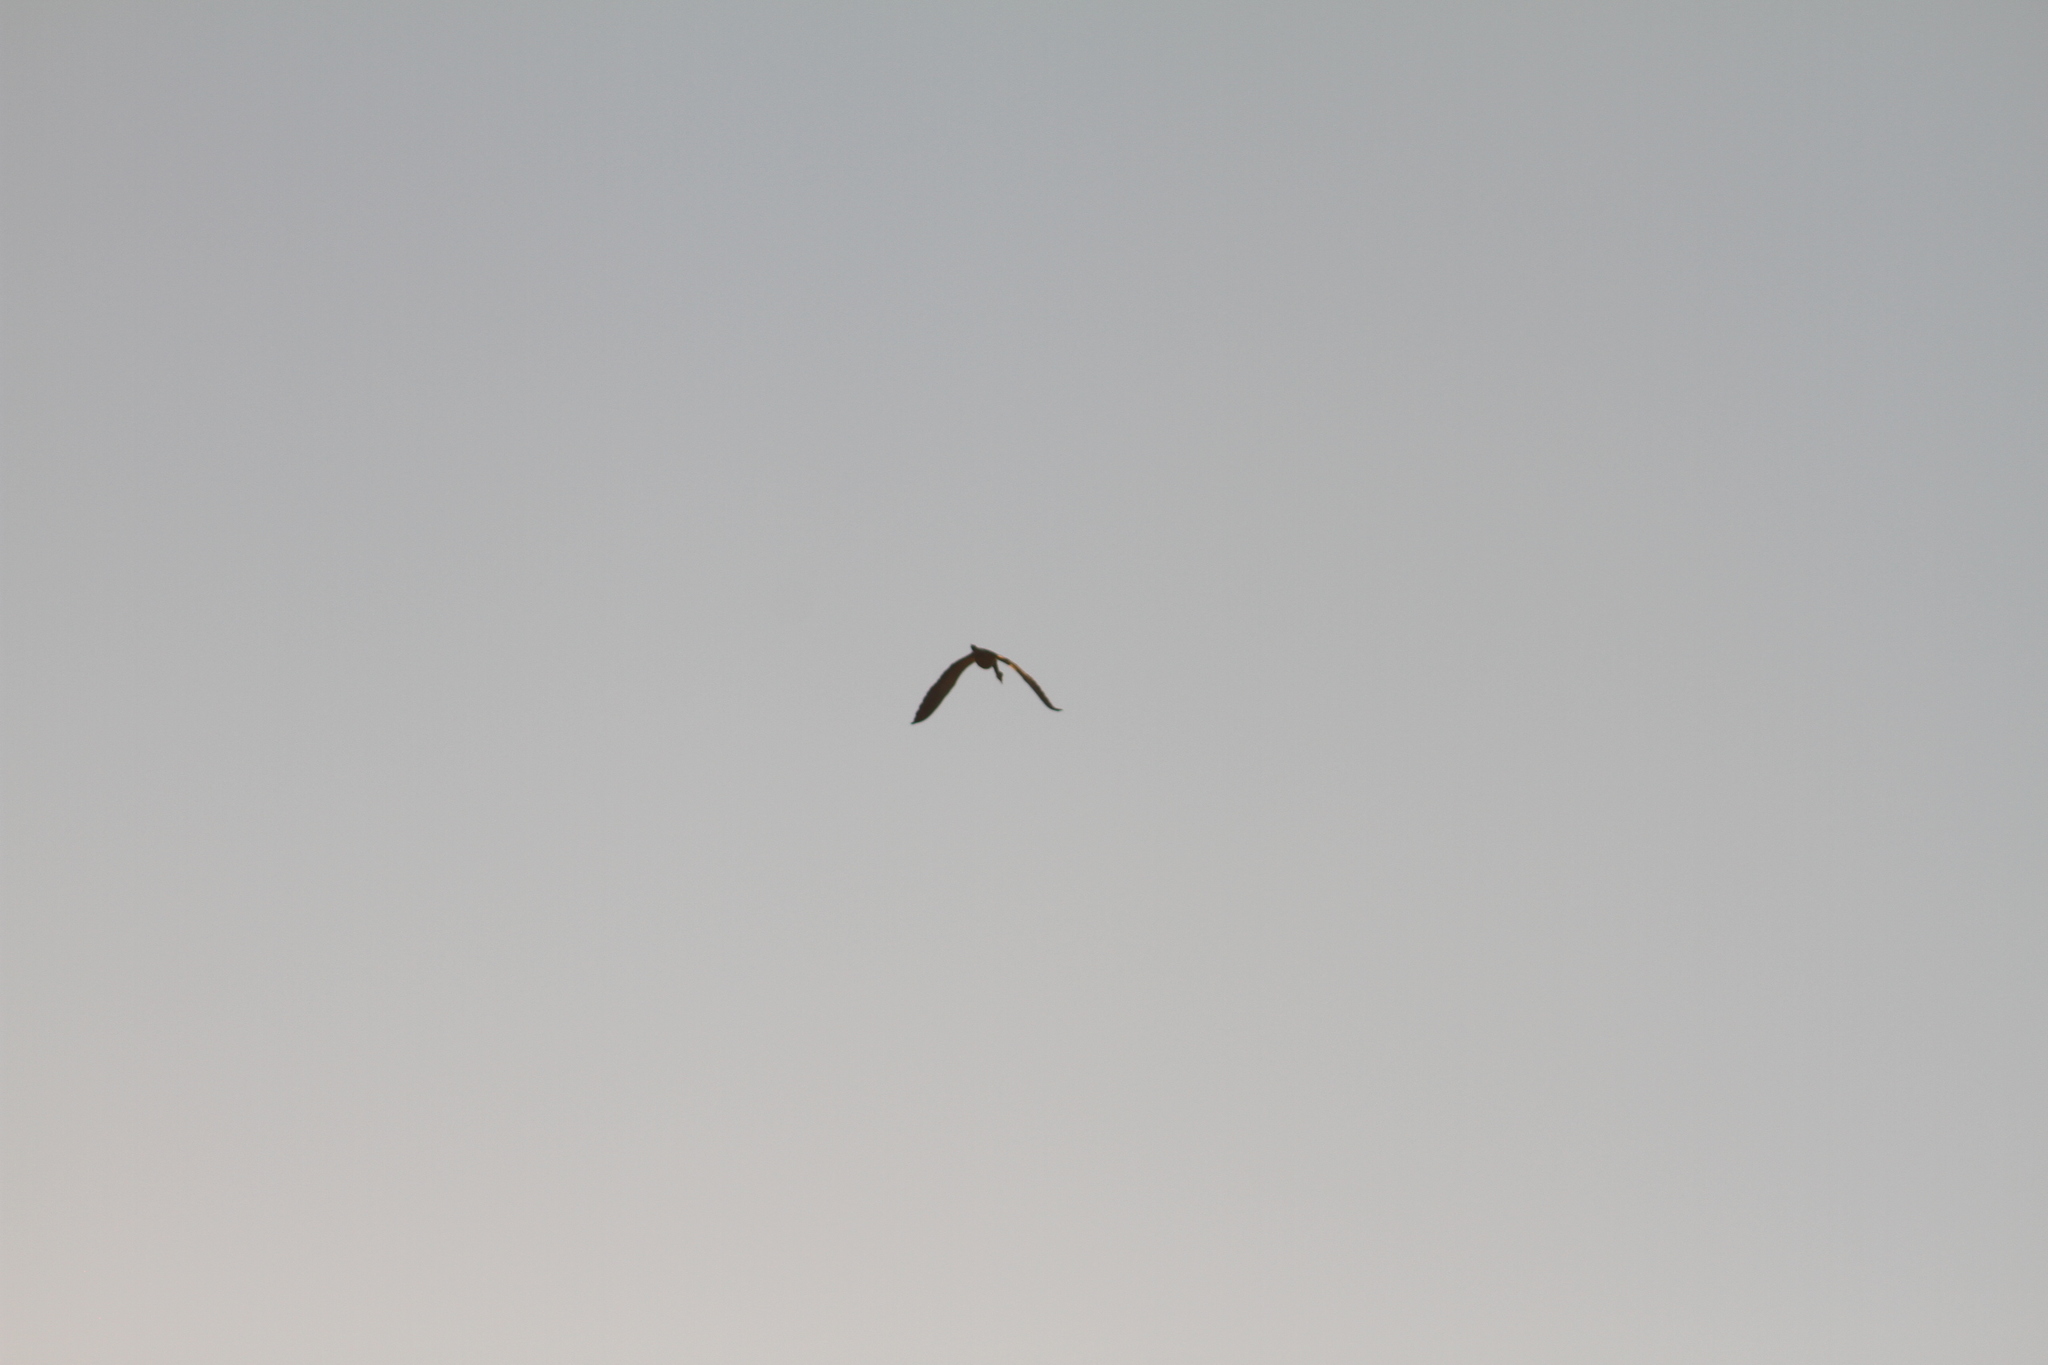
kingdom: Animalia
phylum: Chordata
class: Aves
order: Pelecaniformes
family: Ardeidae
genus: Syrigma
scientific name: Syrigma sibilatrix
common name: Whistling heron
